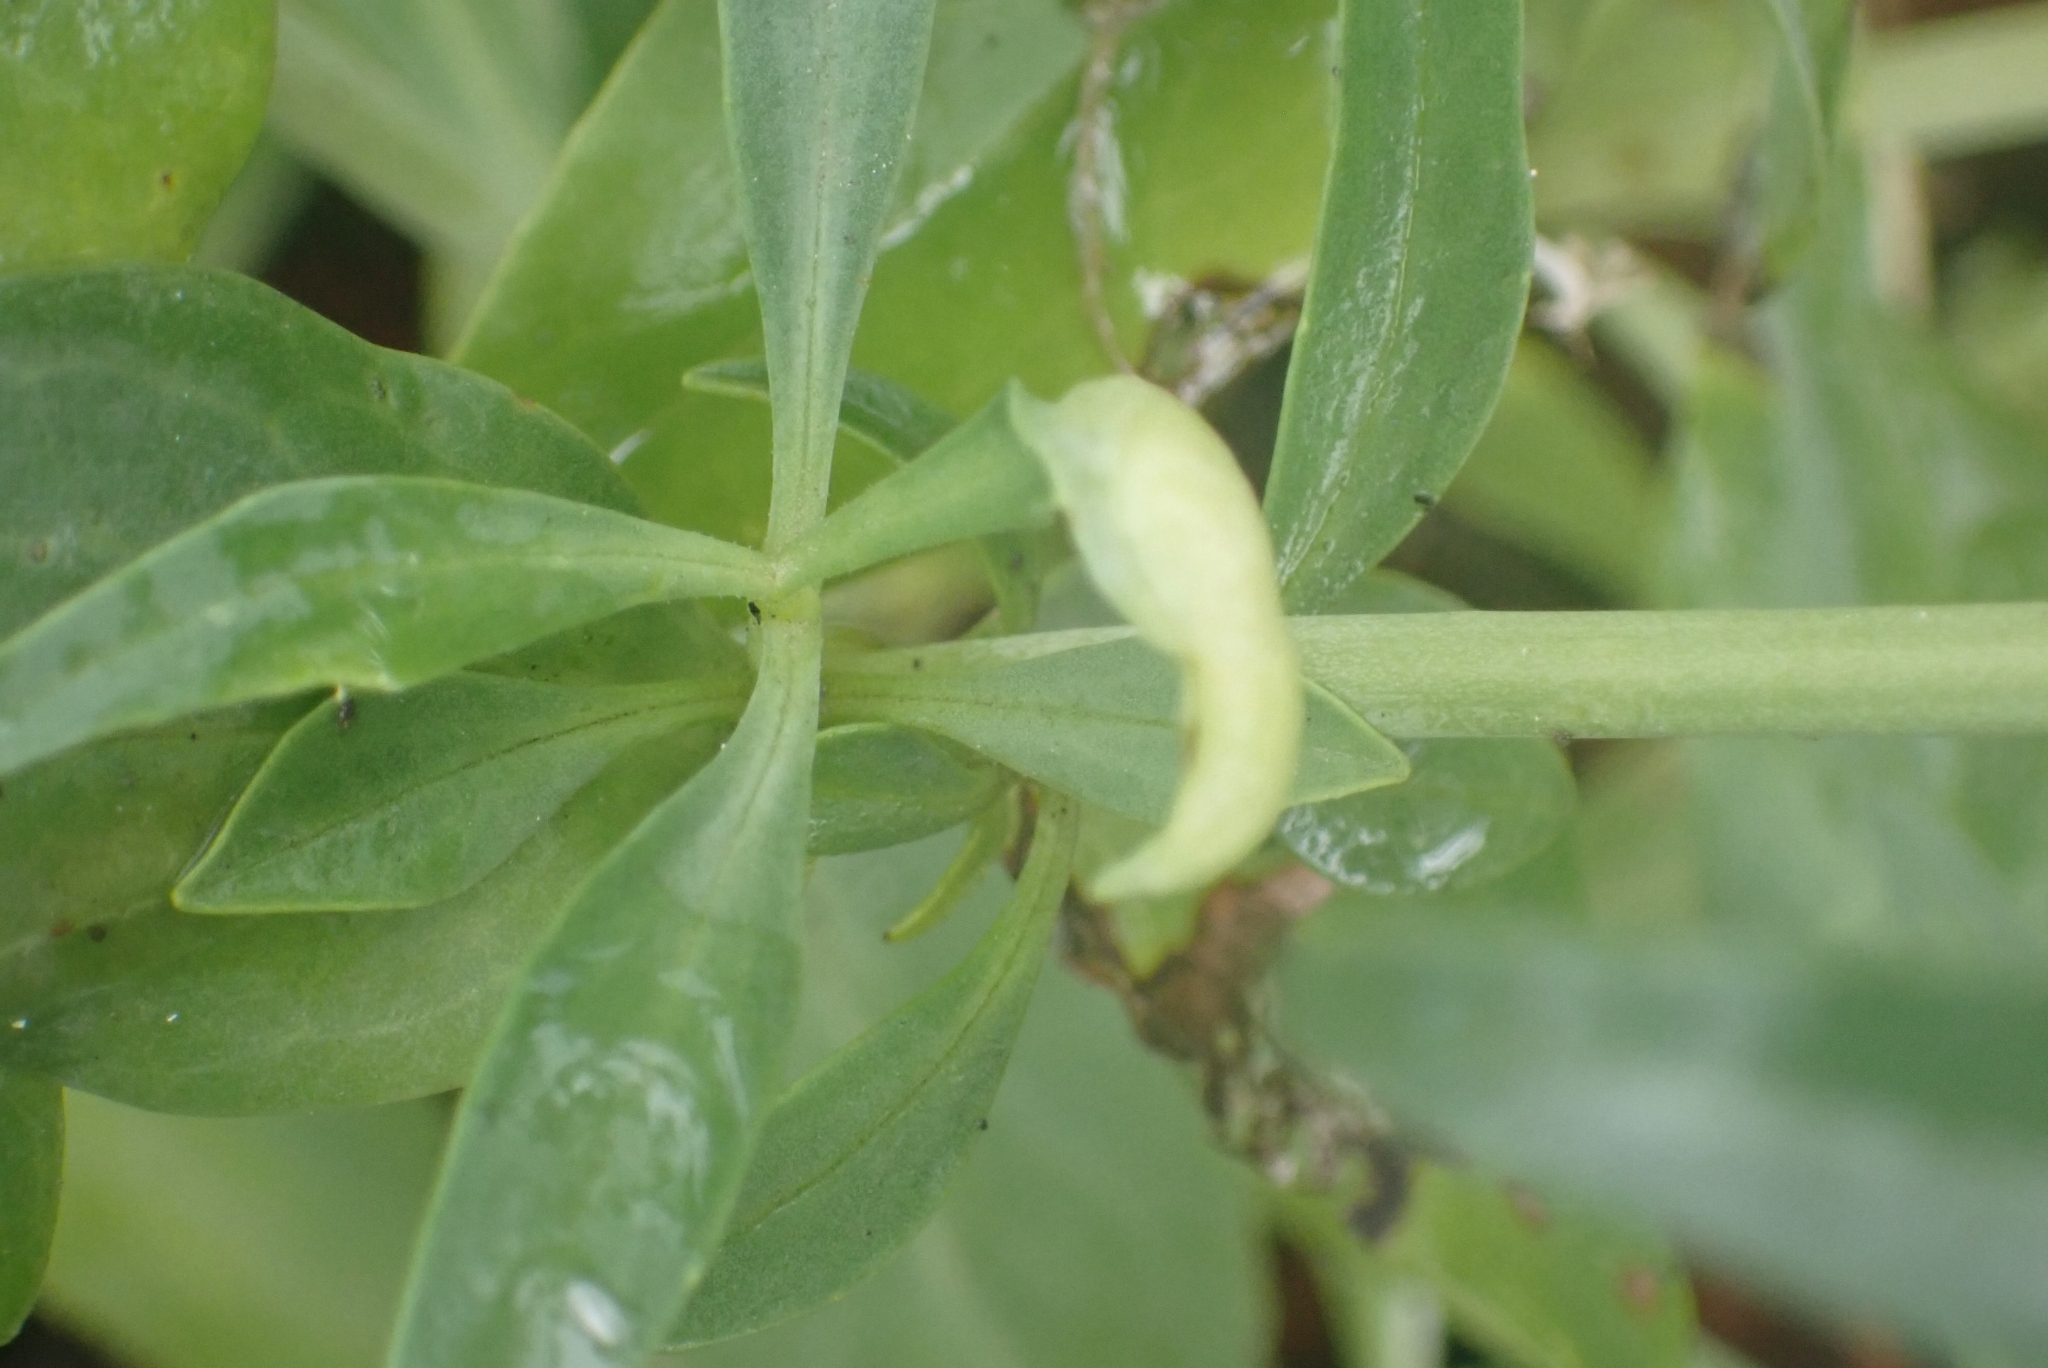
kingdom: Animalia
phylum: Arthropoda
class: Insecta
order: Hemiptera
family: Triozidae
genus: Trioza
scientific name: Trioza centranthi
